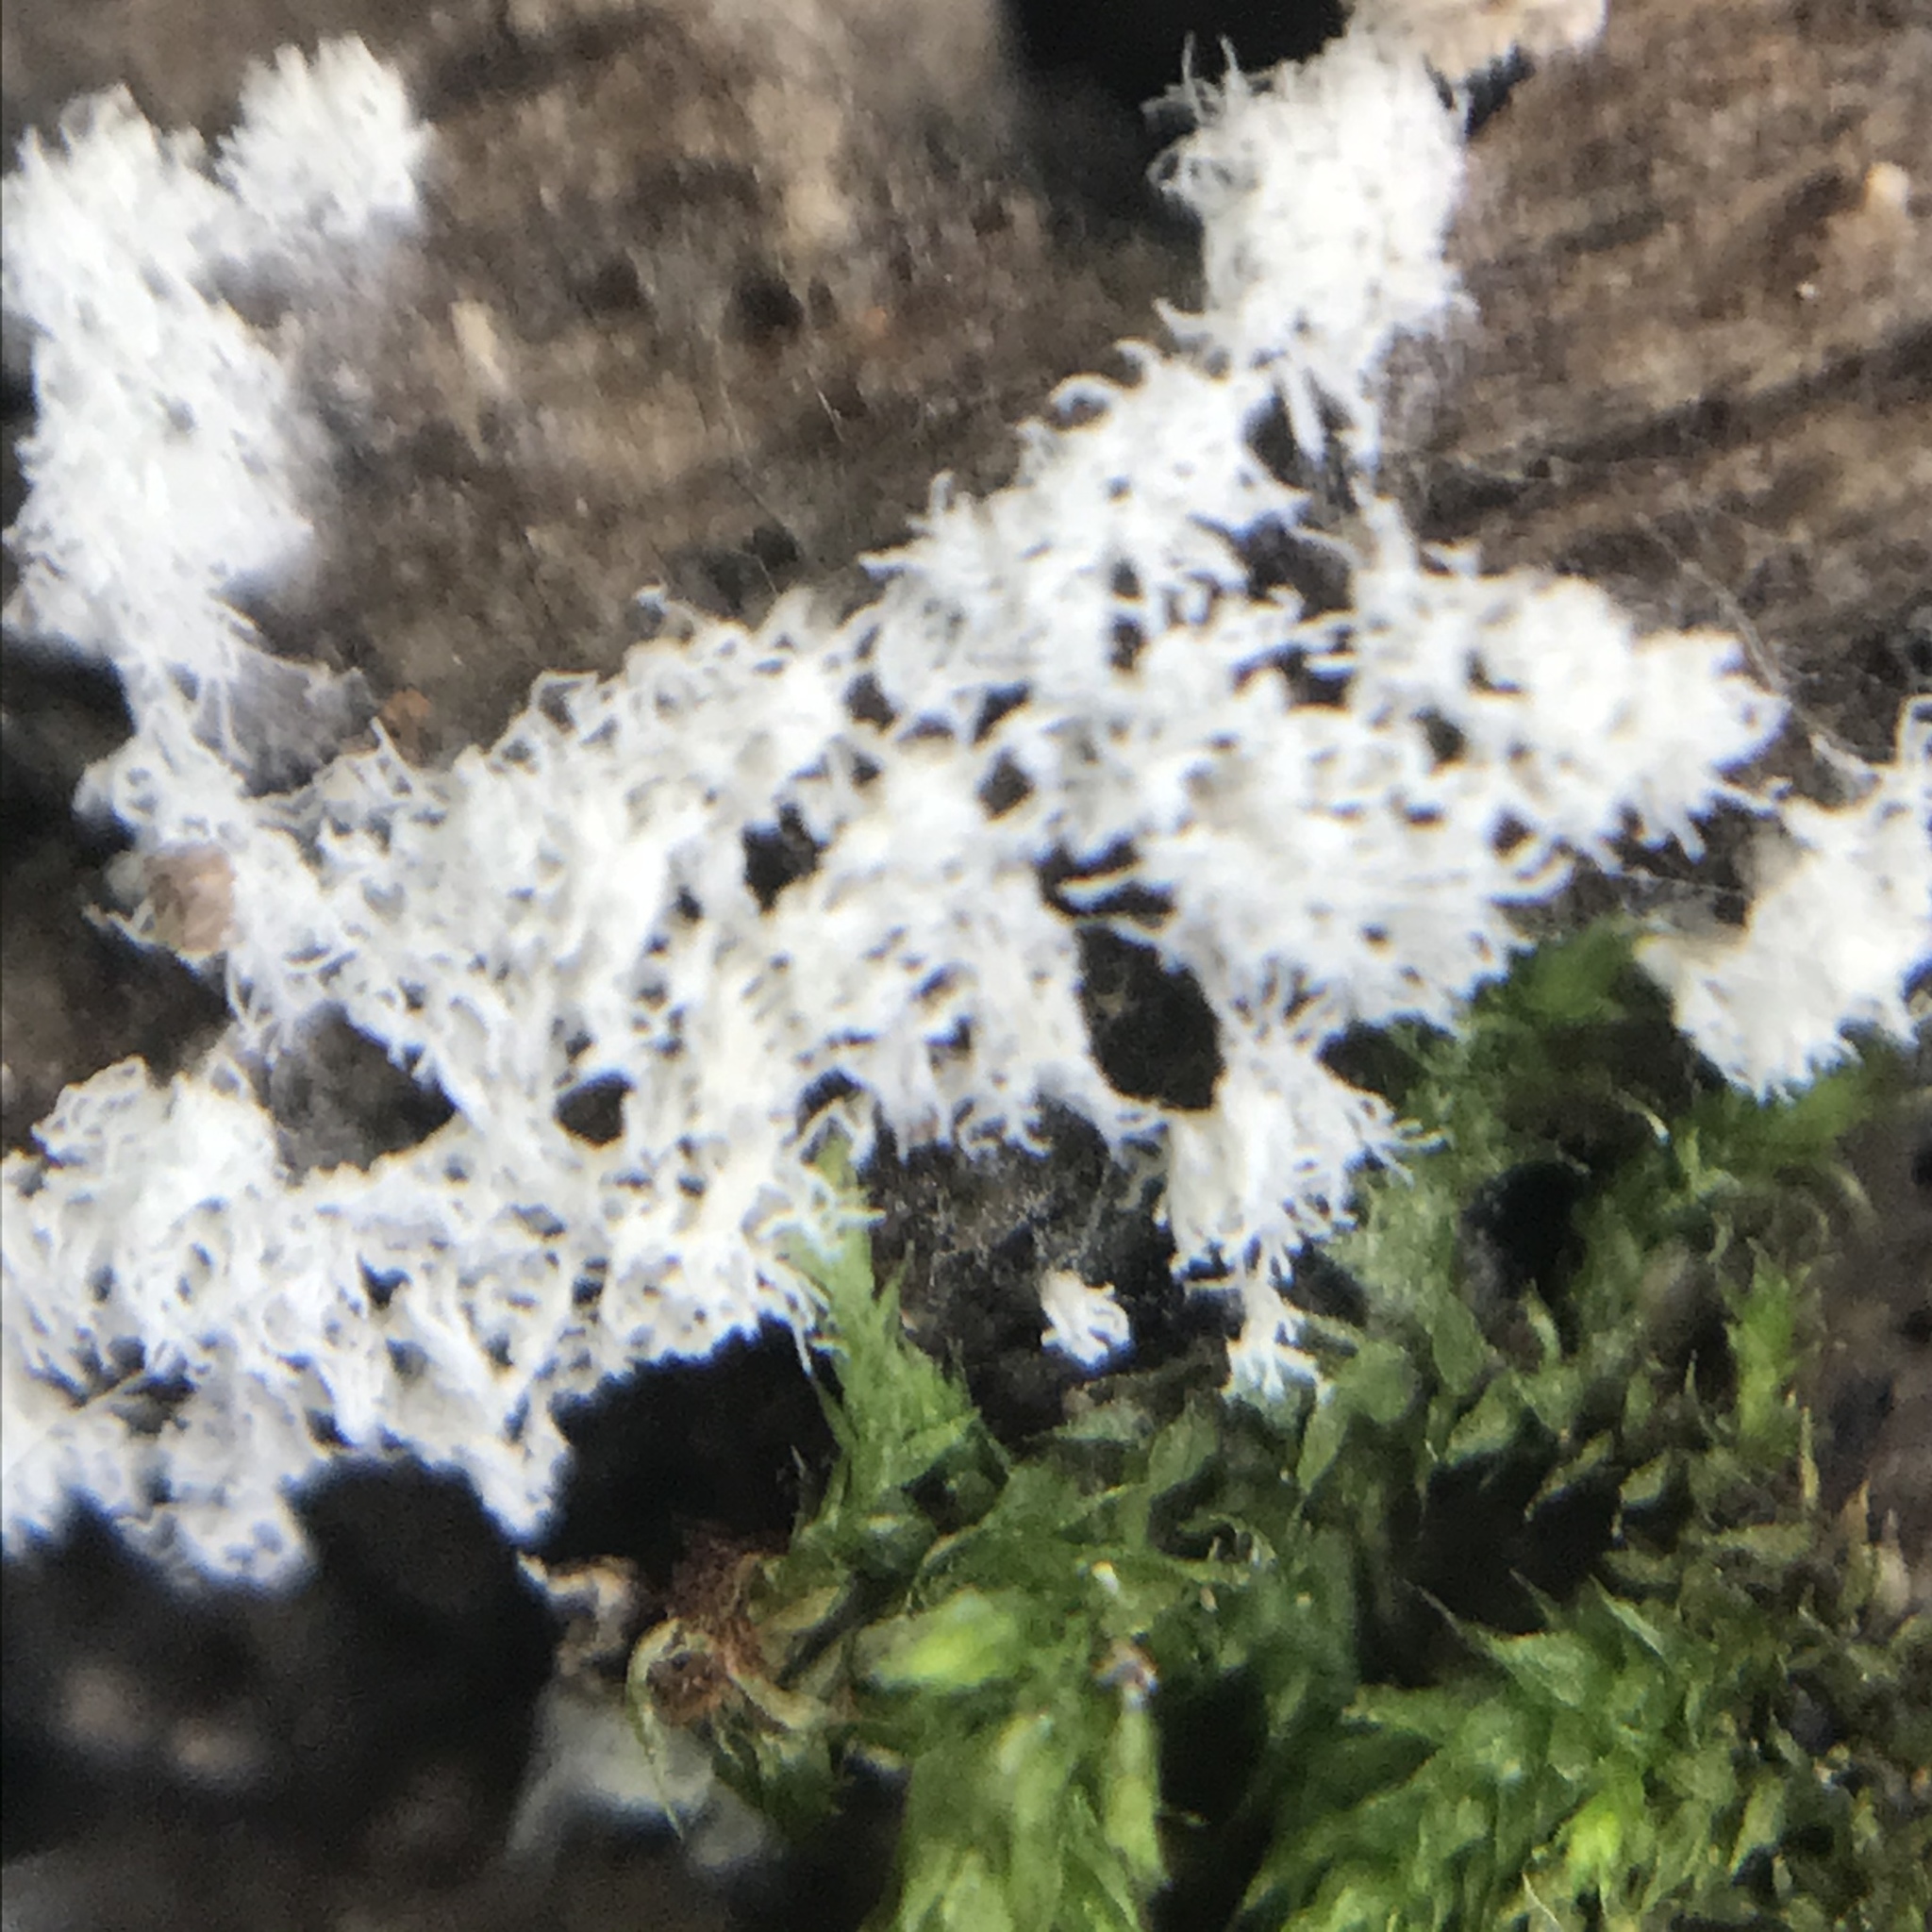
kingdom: Protozoa
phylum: Mycetozoa
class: Protosteliomycetes
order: Ceratiomyxales
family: Ceratiomyxaceae
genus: Ceratiomyxa
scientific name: Ceratiomyxa fruticulosa
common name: Honeycomb coral slime mold
